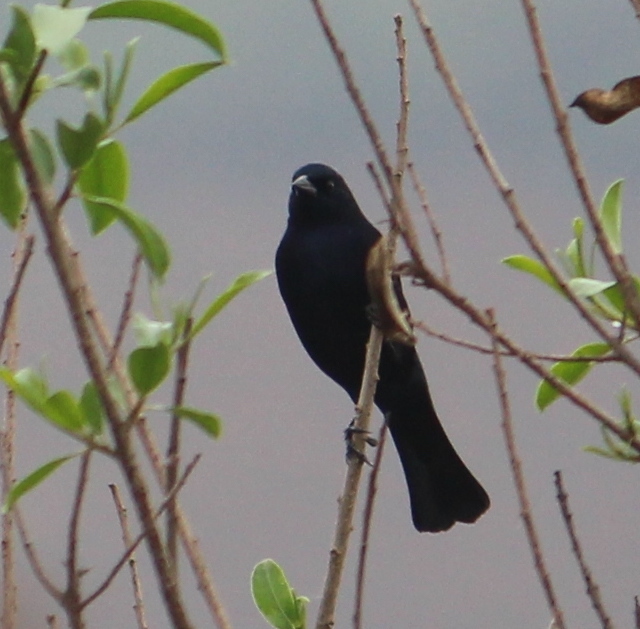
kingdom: Animalia
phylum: Chordata
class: Aves
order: Passeriformes
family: Icteridae
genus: Molothrus
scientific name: Molothrus bonariensis
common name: Shiny cowbird
